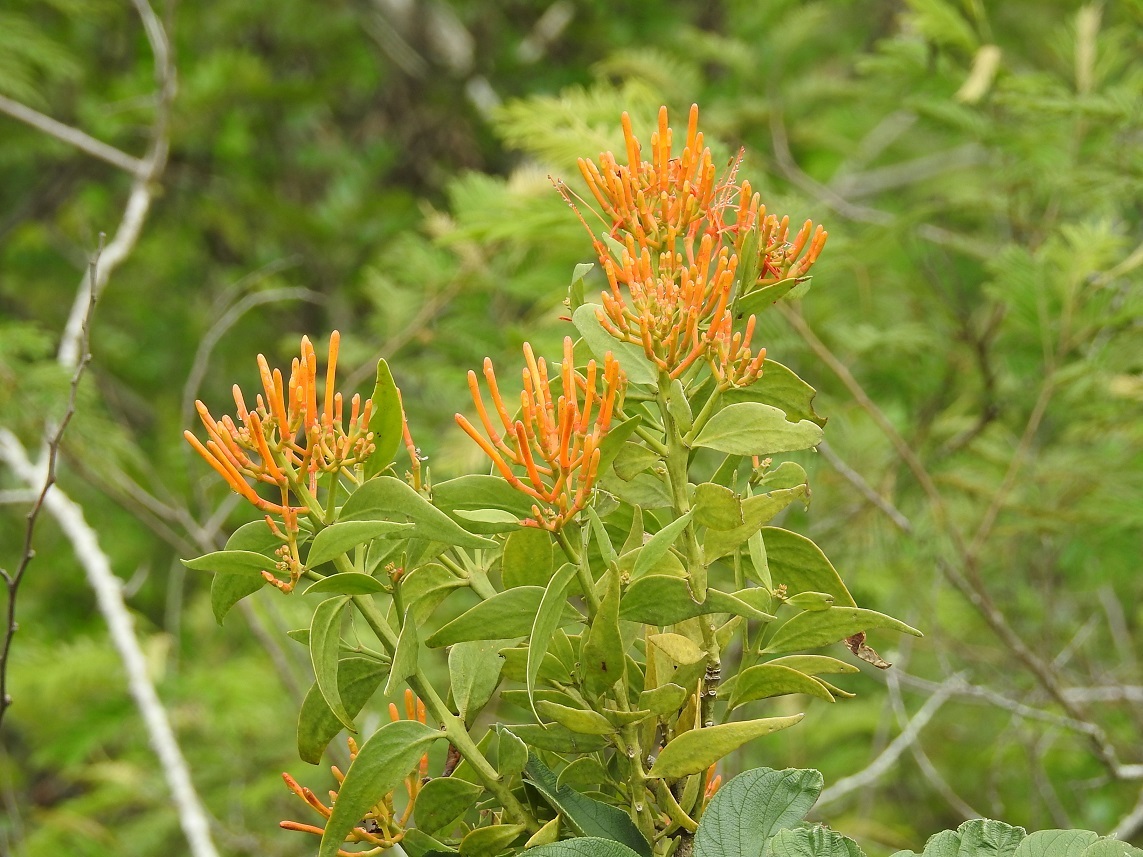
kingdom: Plantae
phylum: Tracheophyta
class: Magnoliopsida
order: Santalales
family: Loranthaceae
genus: Psittacanthus
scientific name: Psittacanthus schiedeanus
